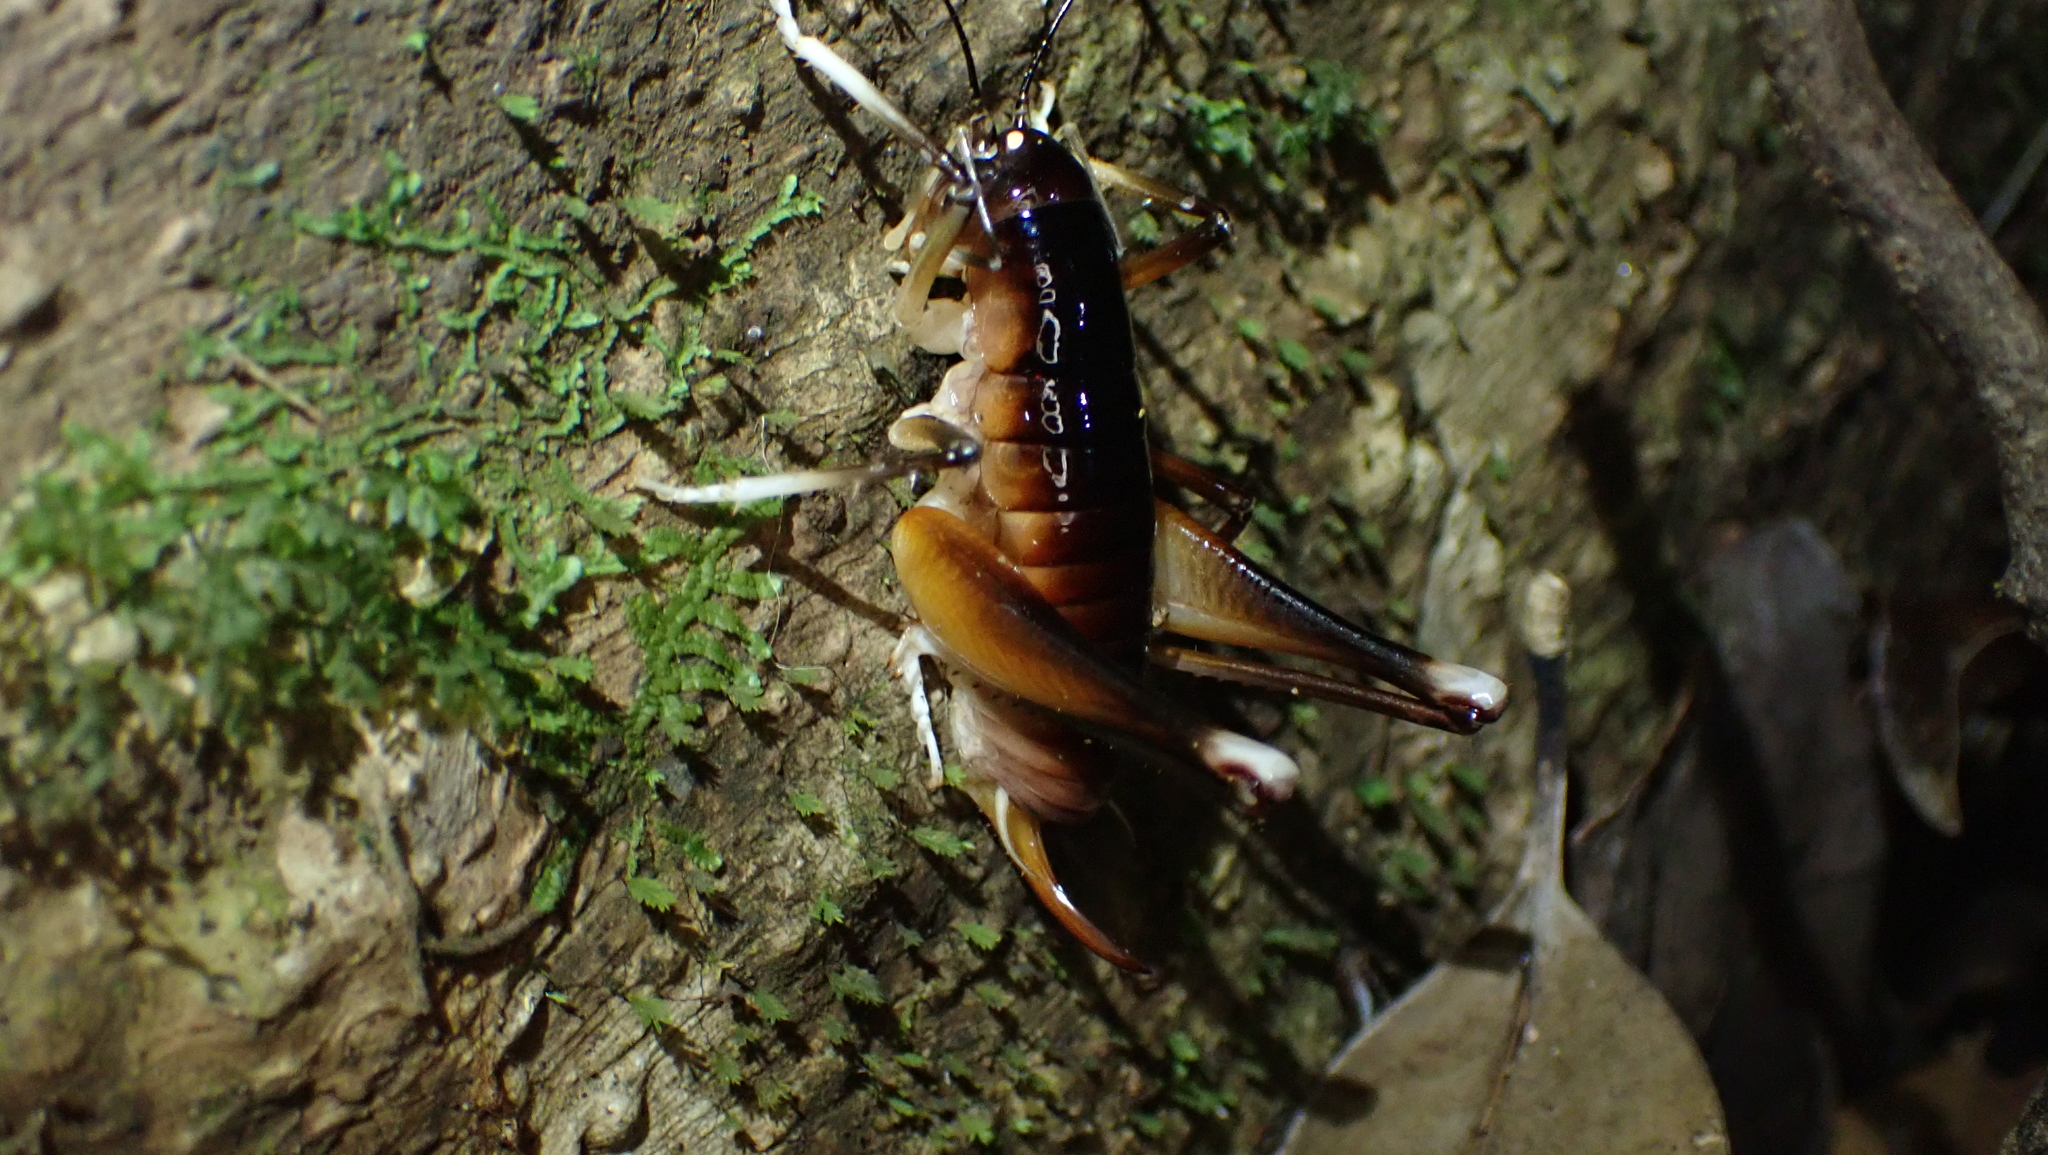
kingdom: Animalia
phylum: Arthropoda
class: Insecta
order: Orthoptera
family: Anostostomatidae
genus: Glaphyrosoma
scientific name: Glaphyrosoma stephanosoltis
